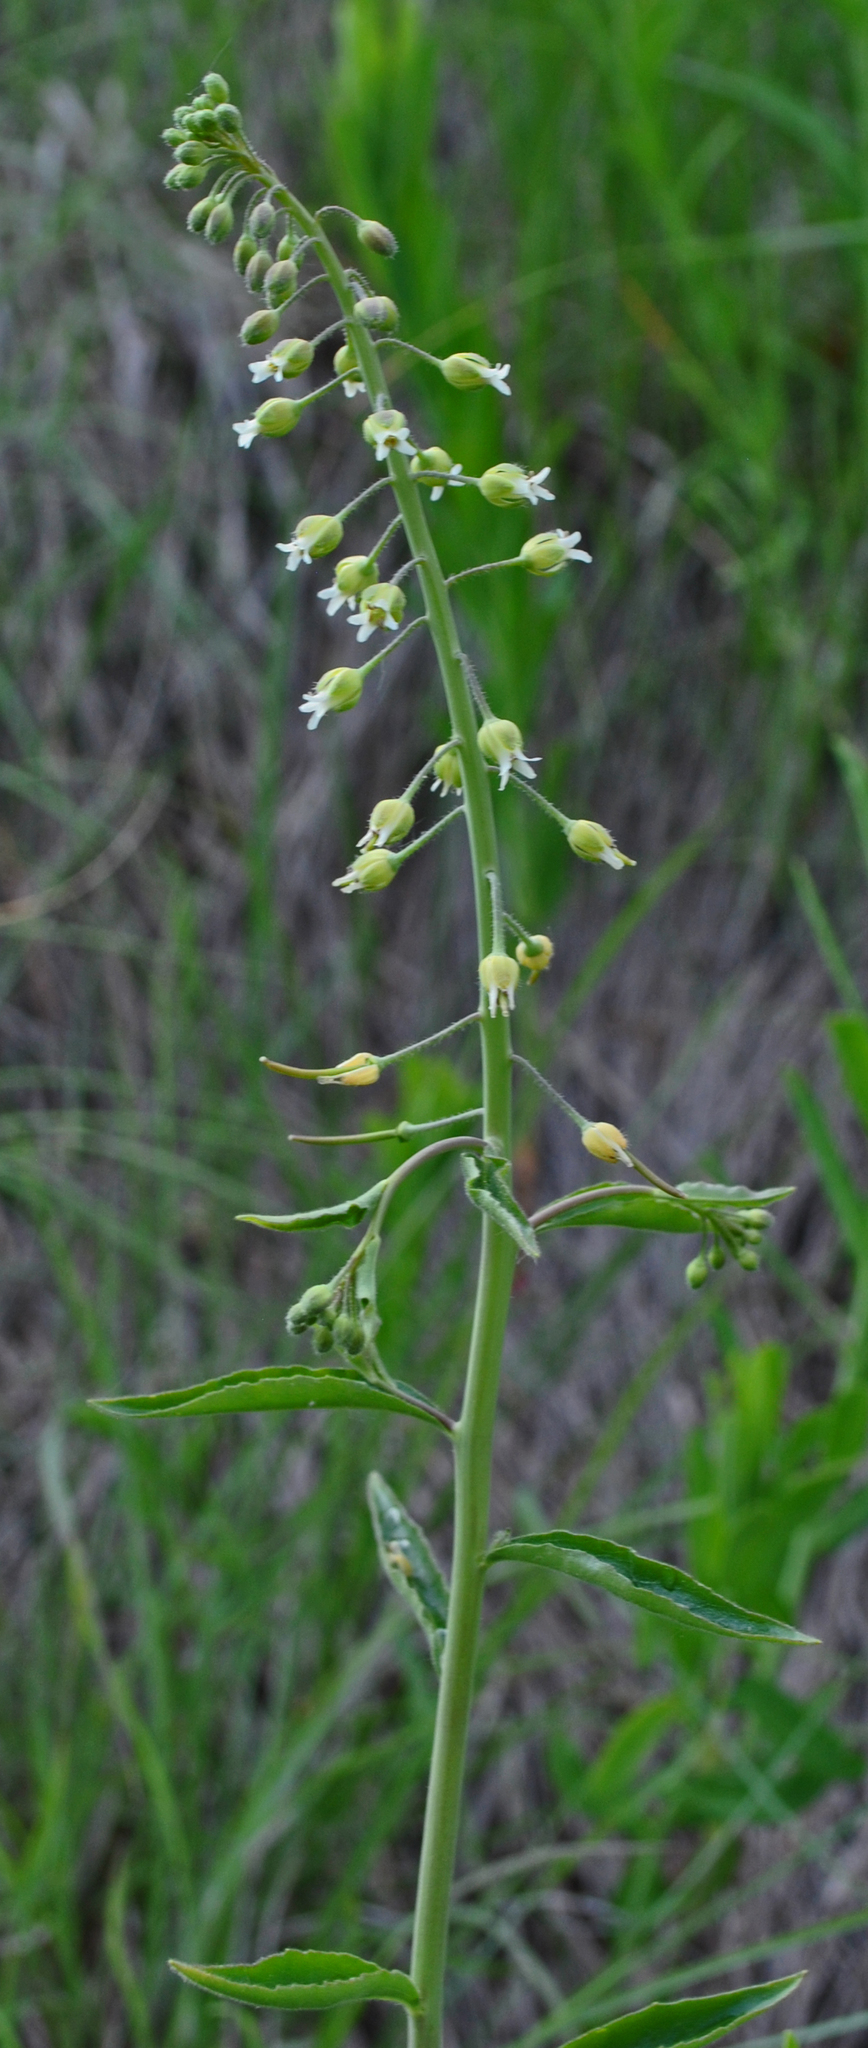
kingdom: Plantae
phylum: Tracheophyta
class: Magnoliopsida
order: Brassicales
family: Brassicaceae
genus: Borodinia
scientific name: Borodinia canadensis
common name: Sicklepod
